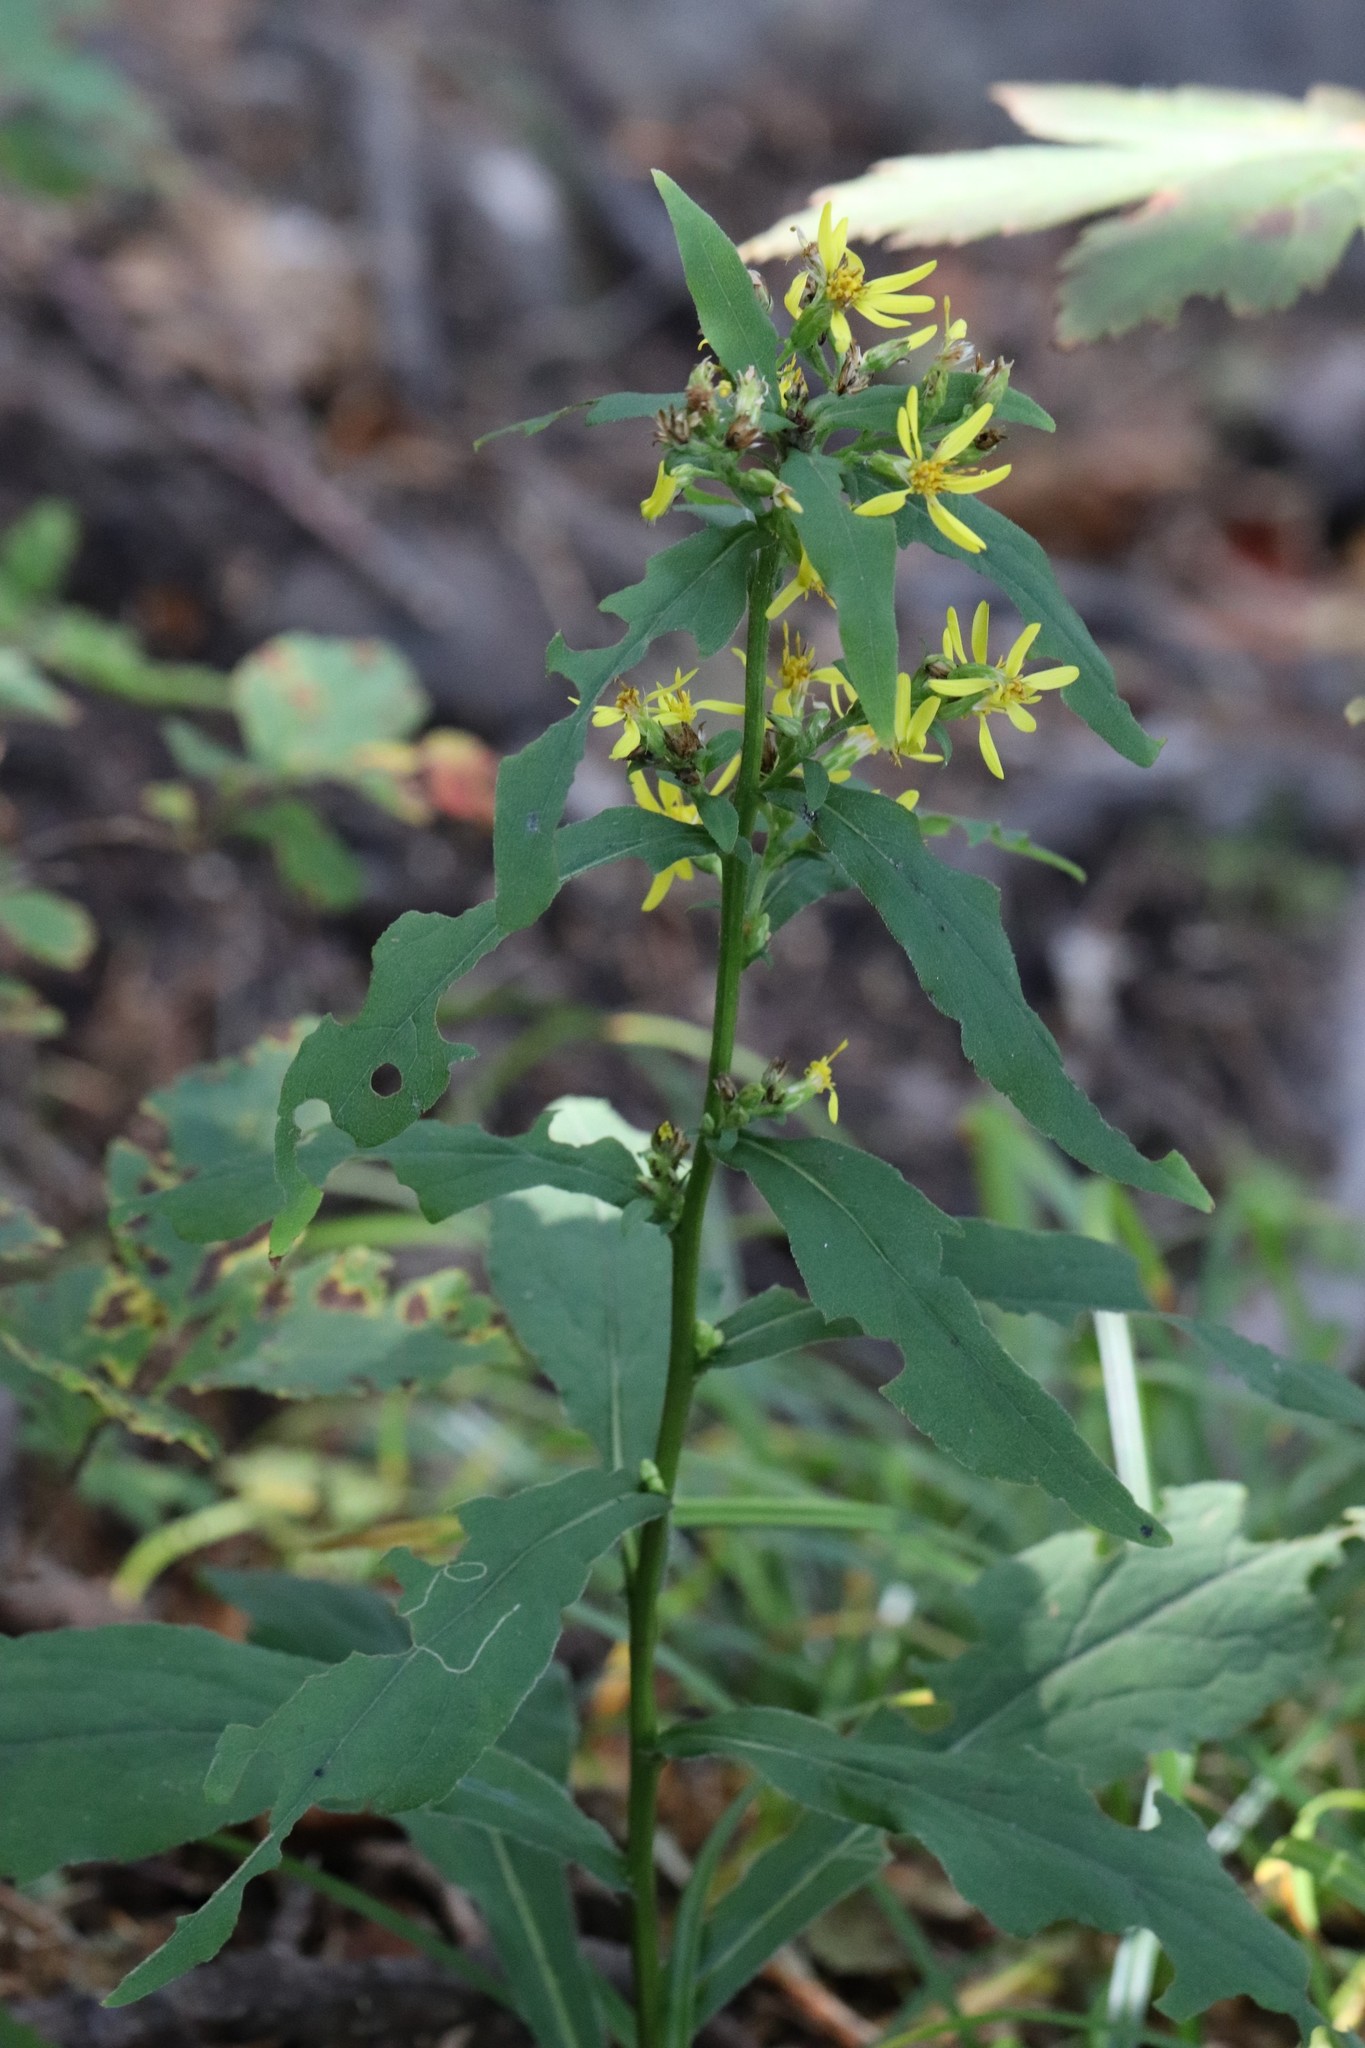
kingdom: Plantae
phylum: Tracheophyta
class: Magnoliopsida
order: Asterales
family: Asteraceae
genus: Solidago
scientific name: Solidago decurrens
